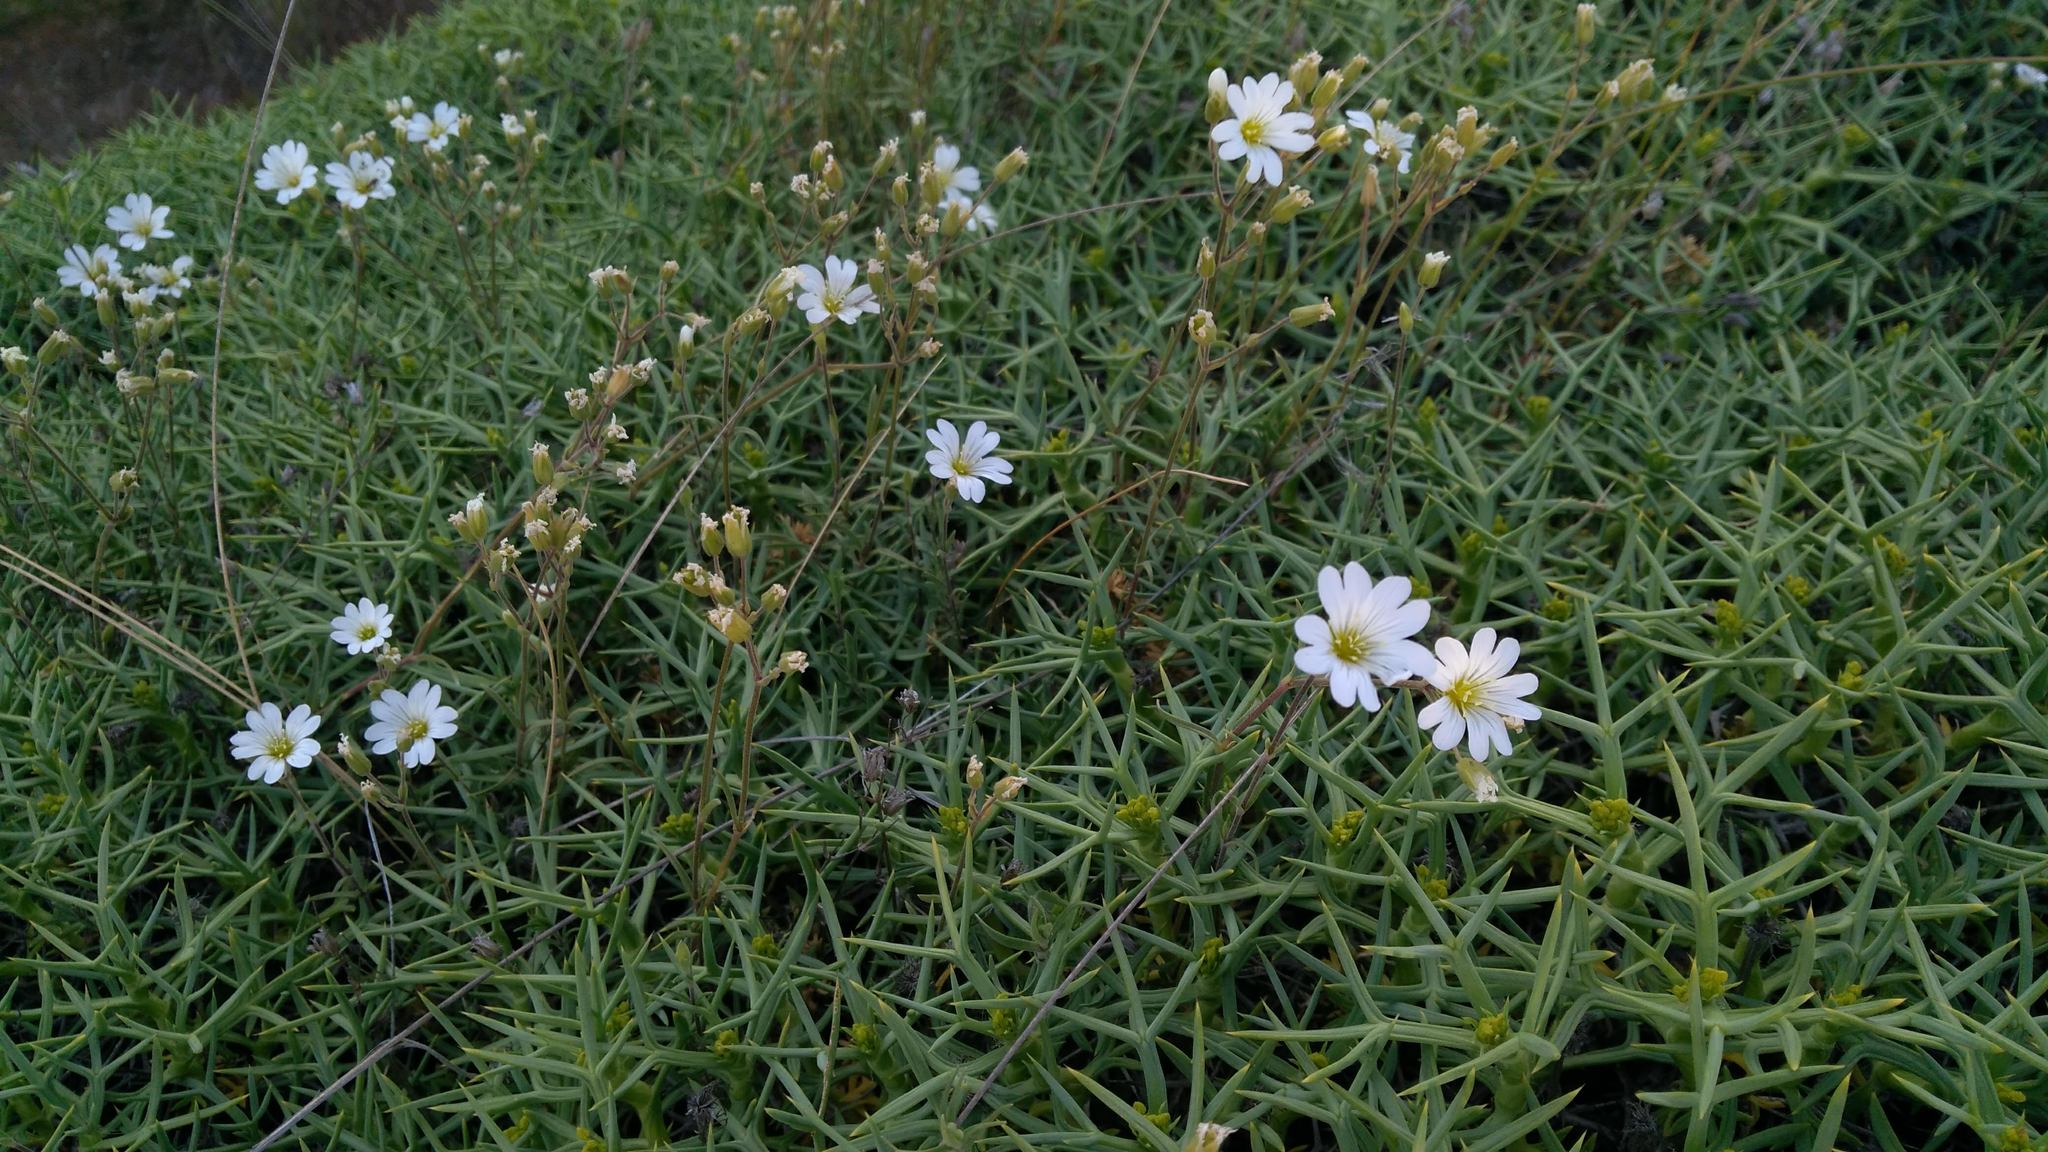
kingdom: Plantae
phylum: Tracheophyta
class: Magnoliopsida
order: Caryophyllales
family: Caryophyllaceae
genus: Cerastium
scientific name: Cerastium tomentosum
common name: Snow-in-summer
